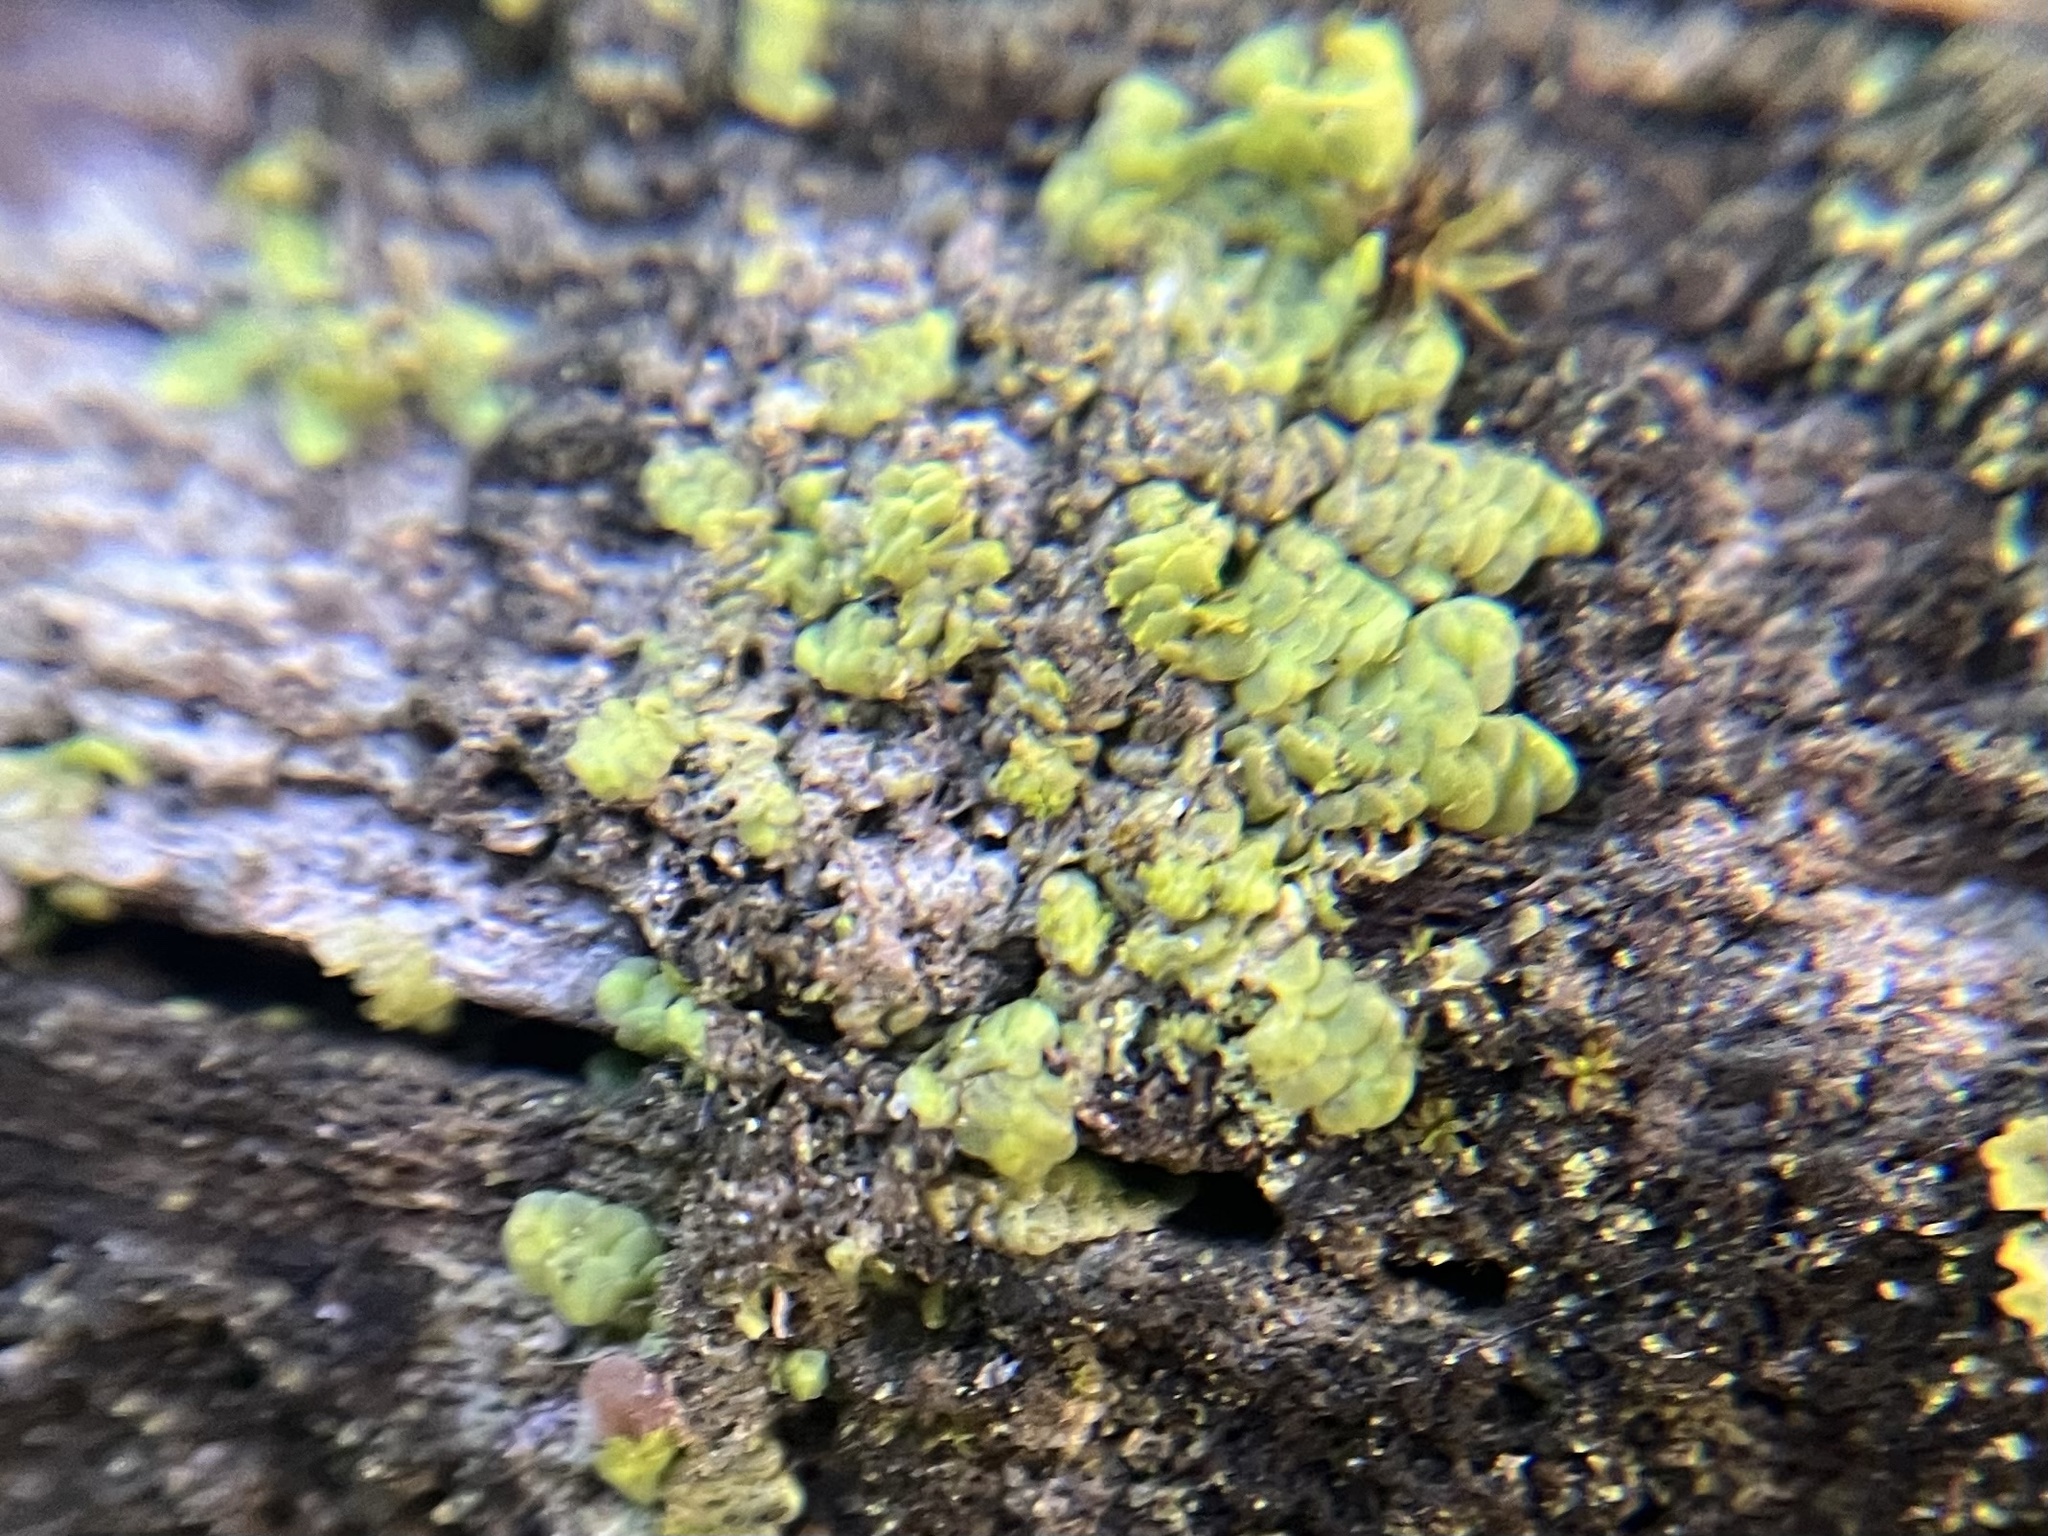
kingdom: Plantae
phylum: Marchantiophyta
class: Jungermanniopsida
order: Porellales
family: Radulaceae
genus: Radula
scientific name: Radula complanata
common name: Flat-leaved scalewort
